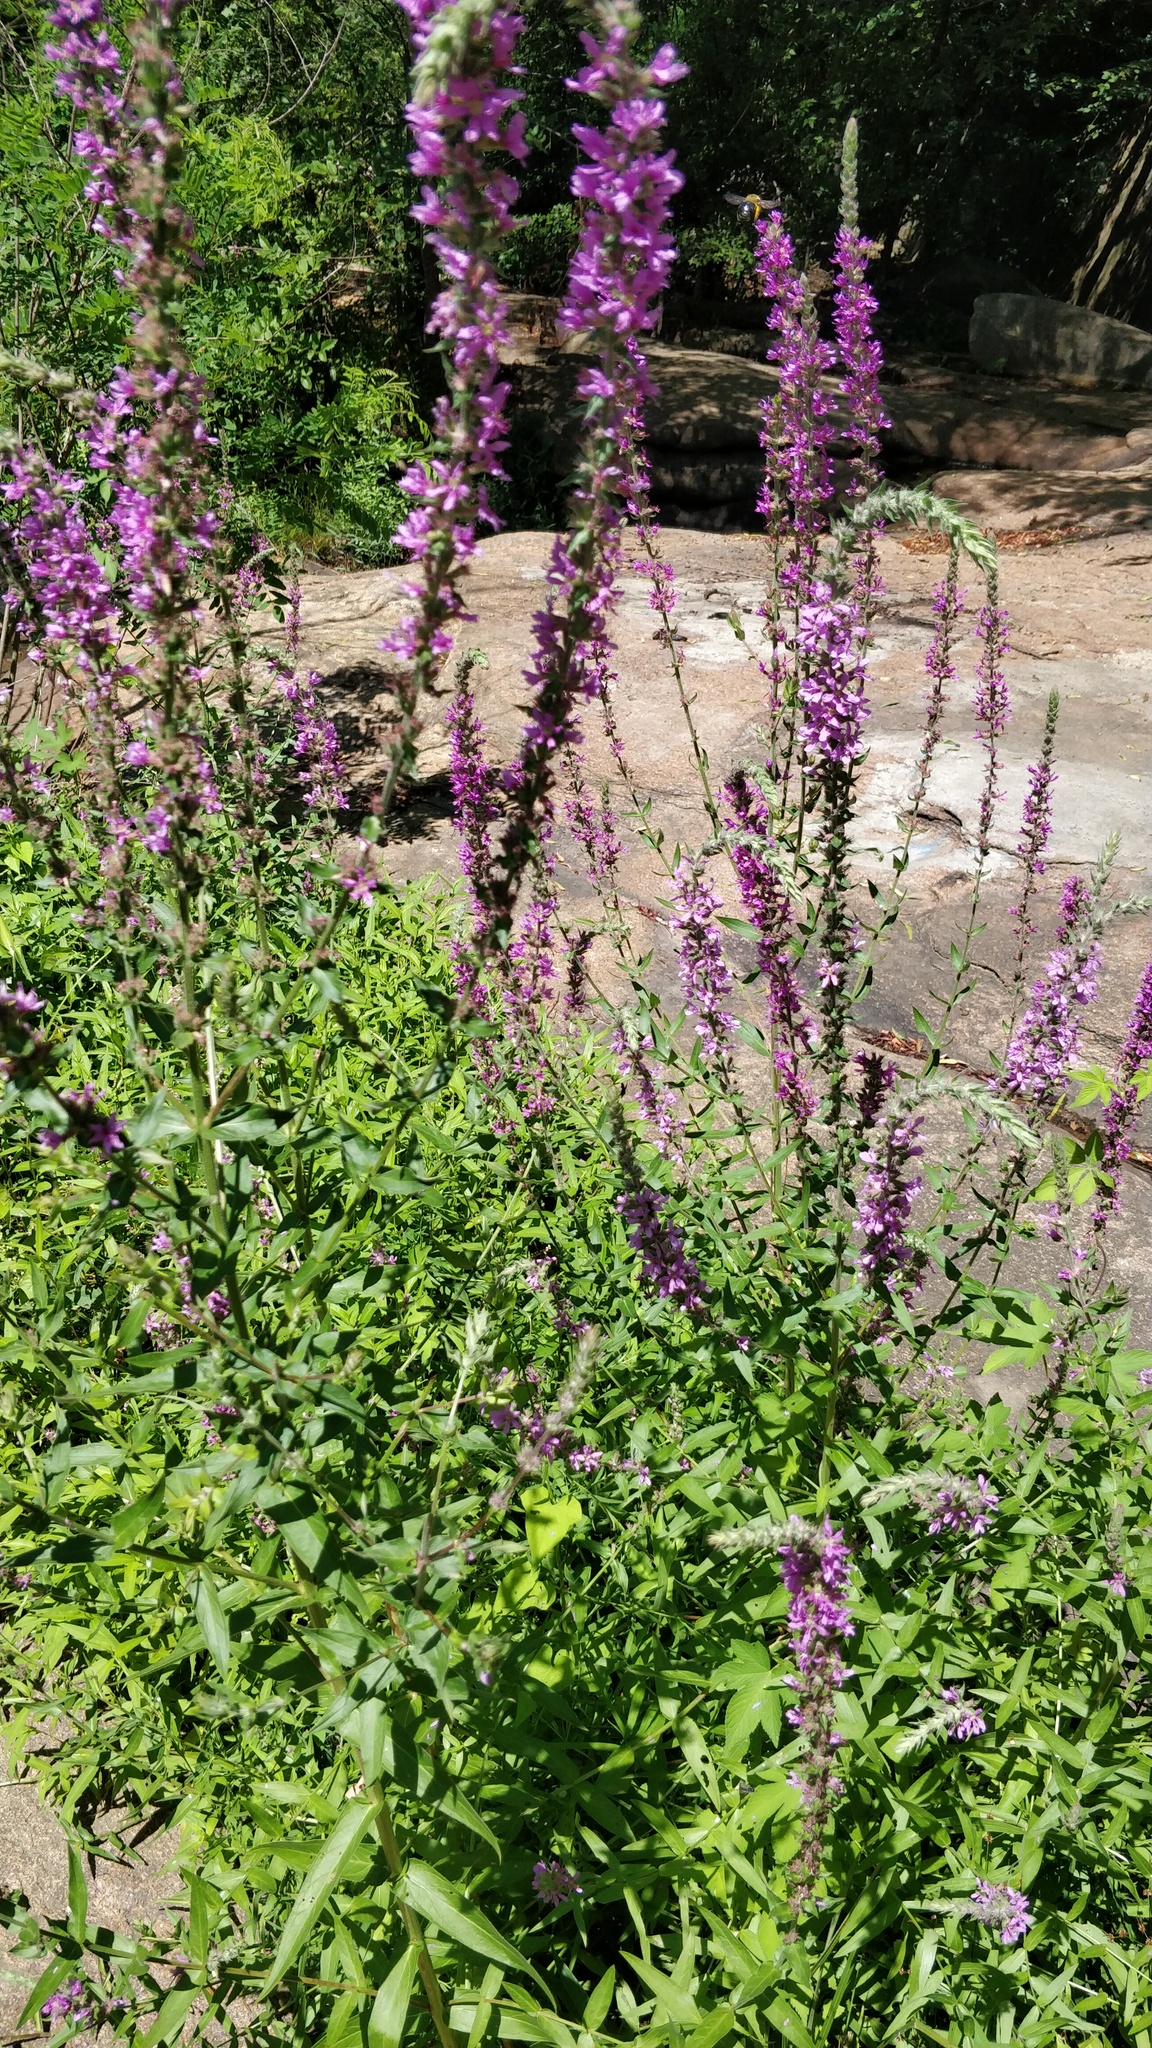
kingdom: Plantae
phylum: Tracheophyta
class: Magnoliopsida
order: Myrtales
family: Lythraceae
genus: Lythrum
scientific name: Lythrum salicaria
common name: Purple loosestrife
